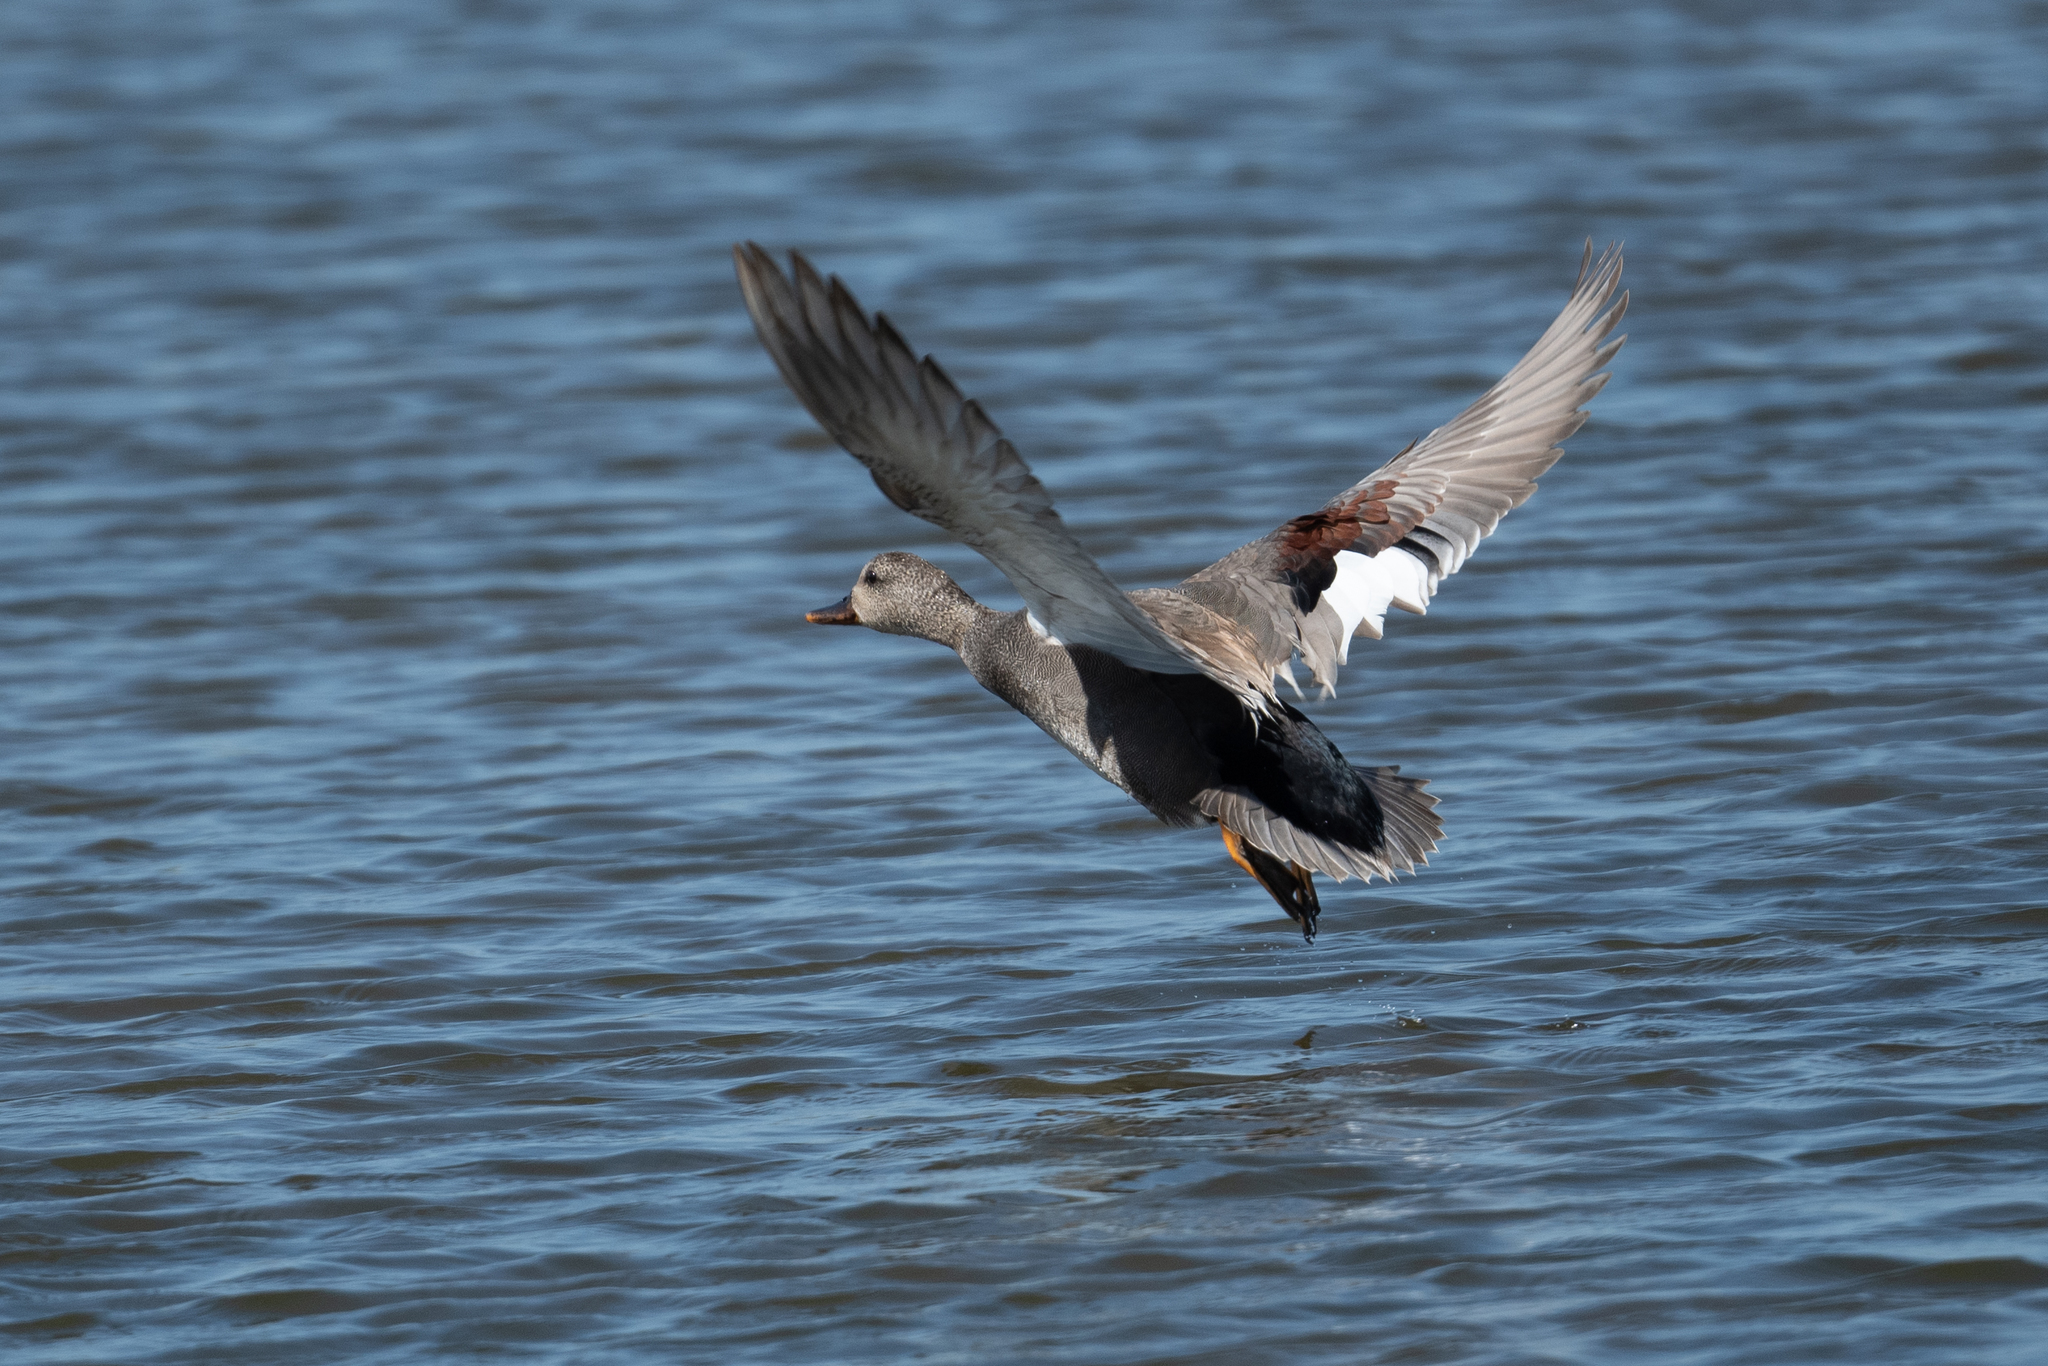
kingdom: Animalia
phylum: Chordata
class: Aves
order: Anseriformes
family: Anatidae
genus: Mareca
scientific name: Mareca strepera
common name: Gadwall
